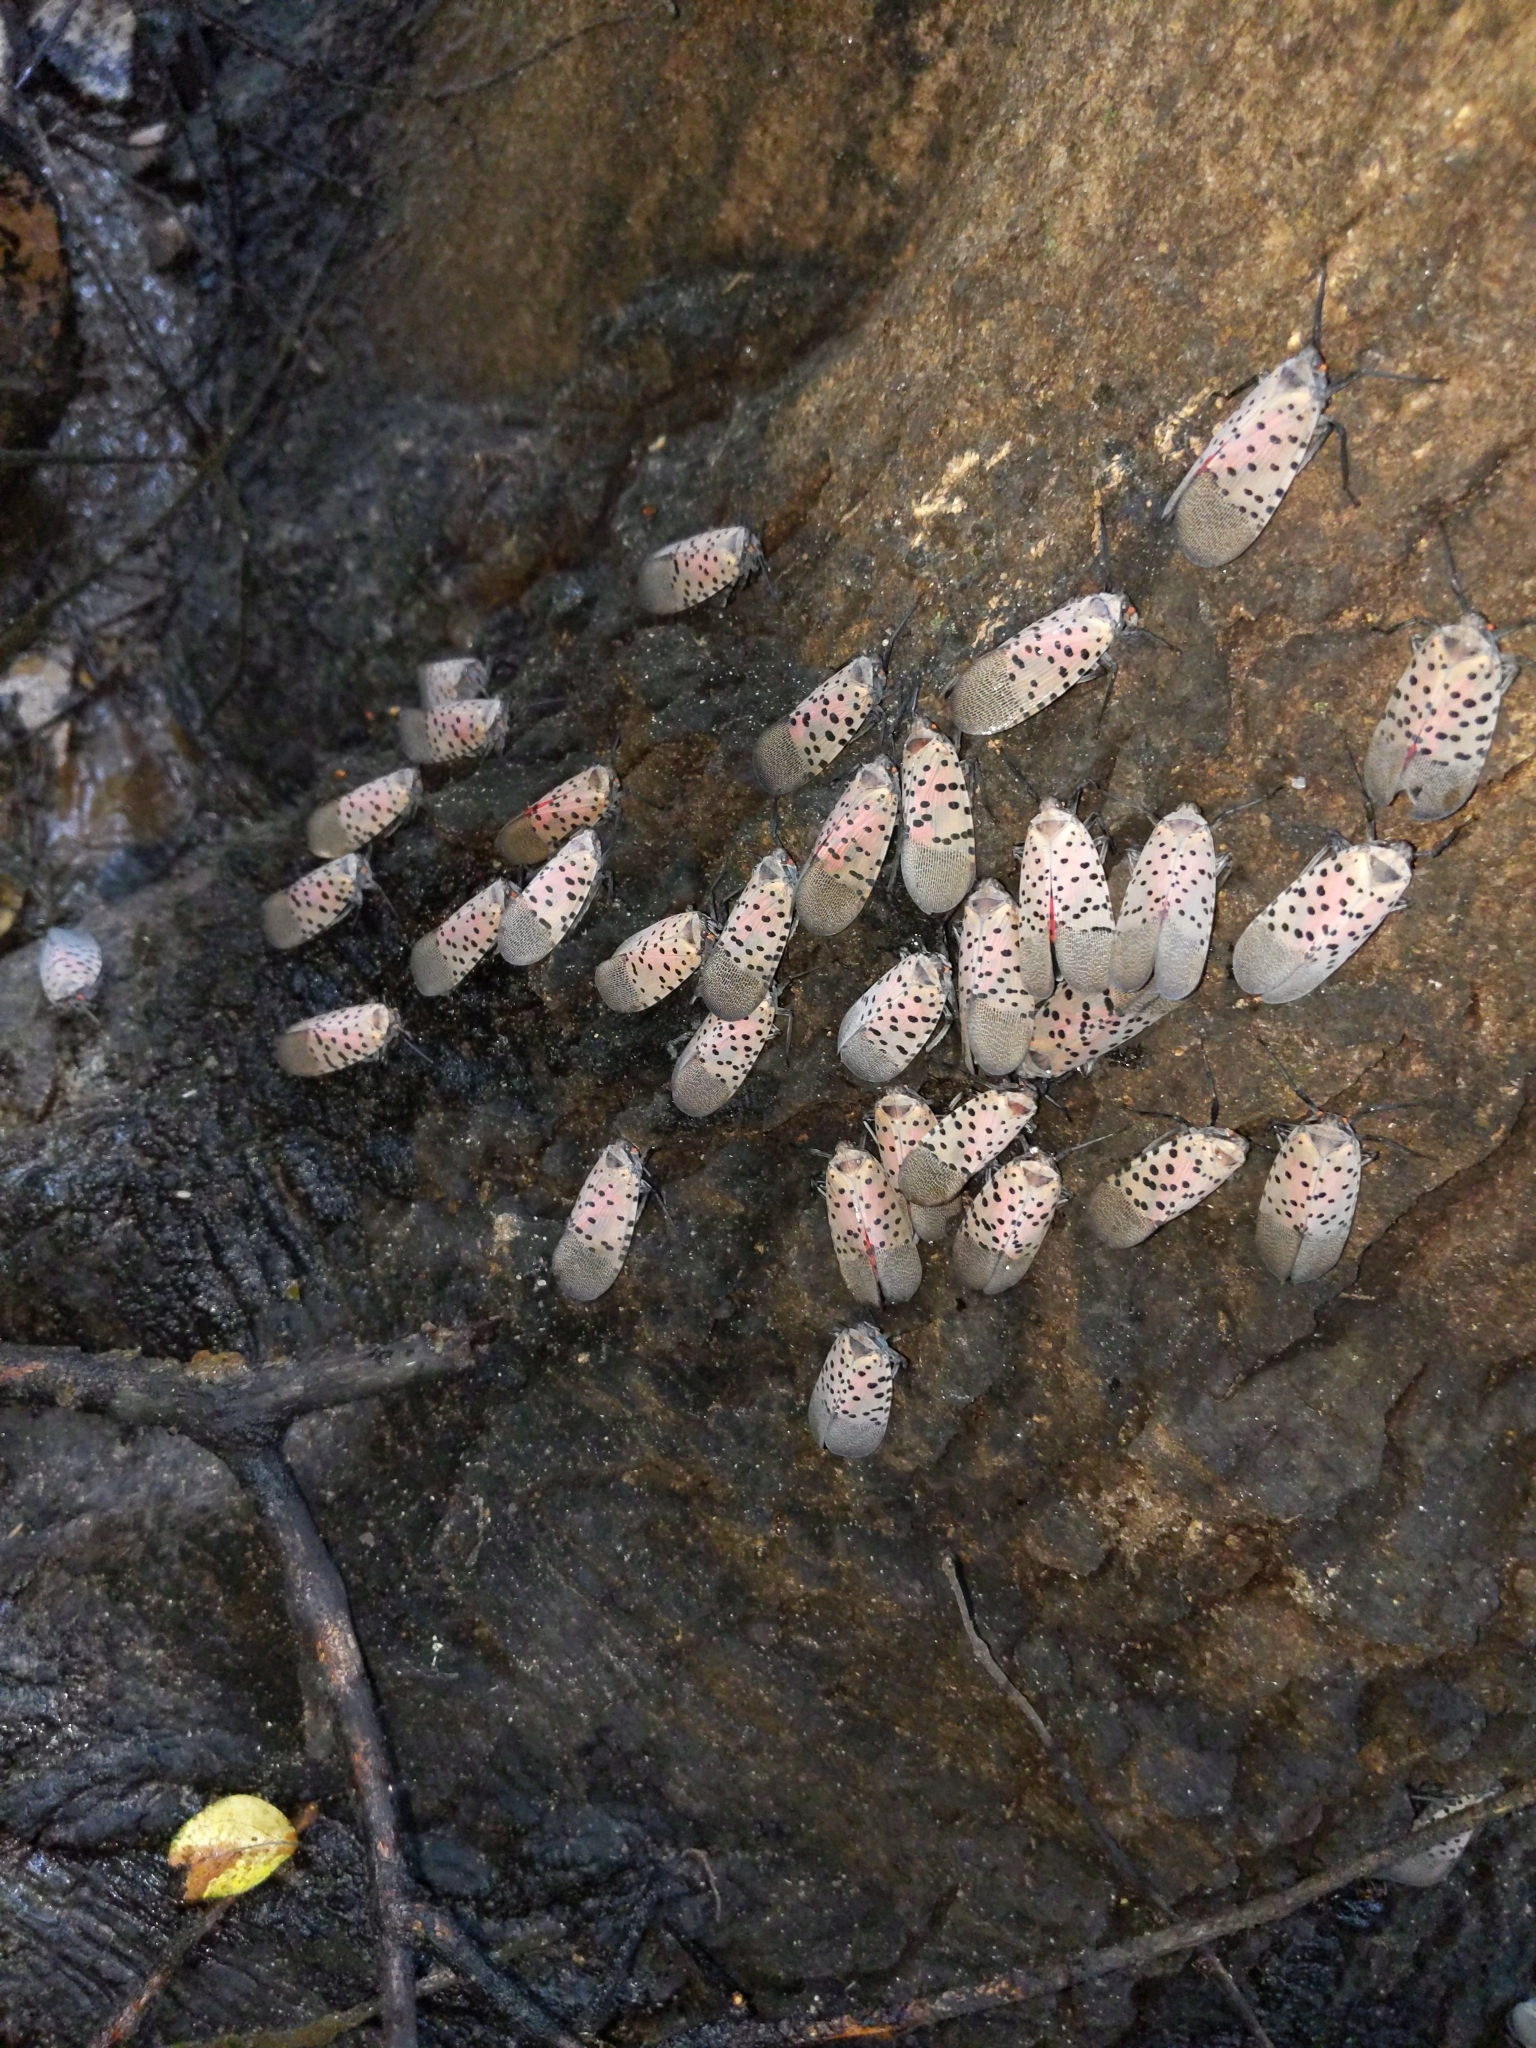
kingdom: Animalia
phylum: Arthropoda
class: Insecta
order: Hemiptera
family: Fulgoridae
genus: Lycorma
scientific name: Lycorma delicatula
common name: Spotted lanternfly
